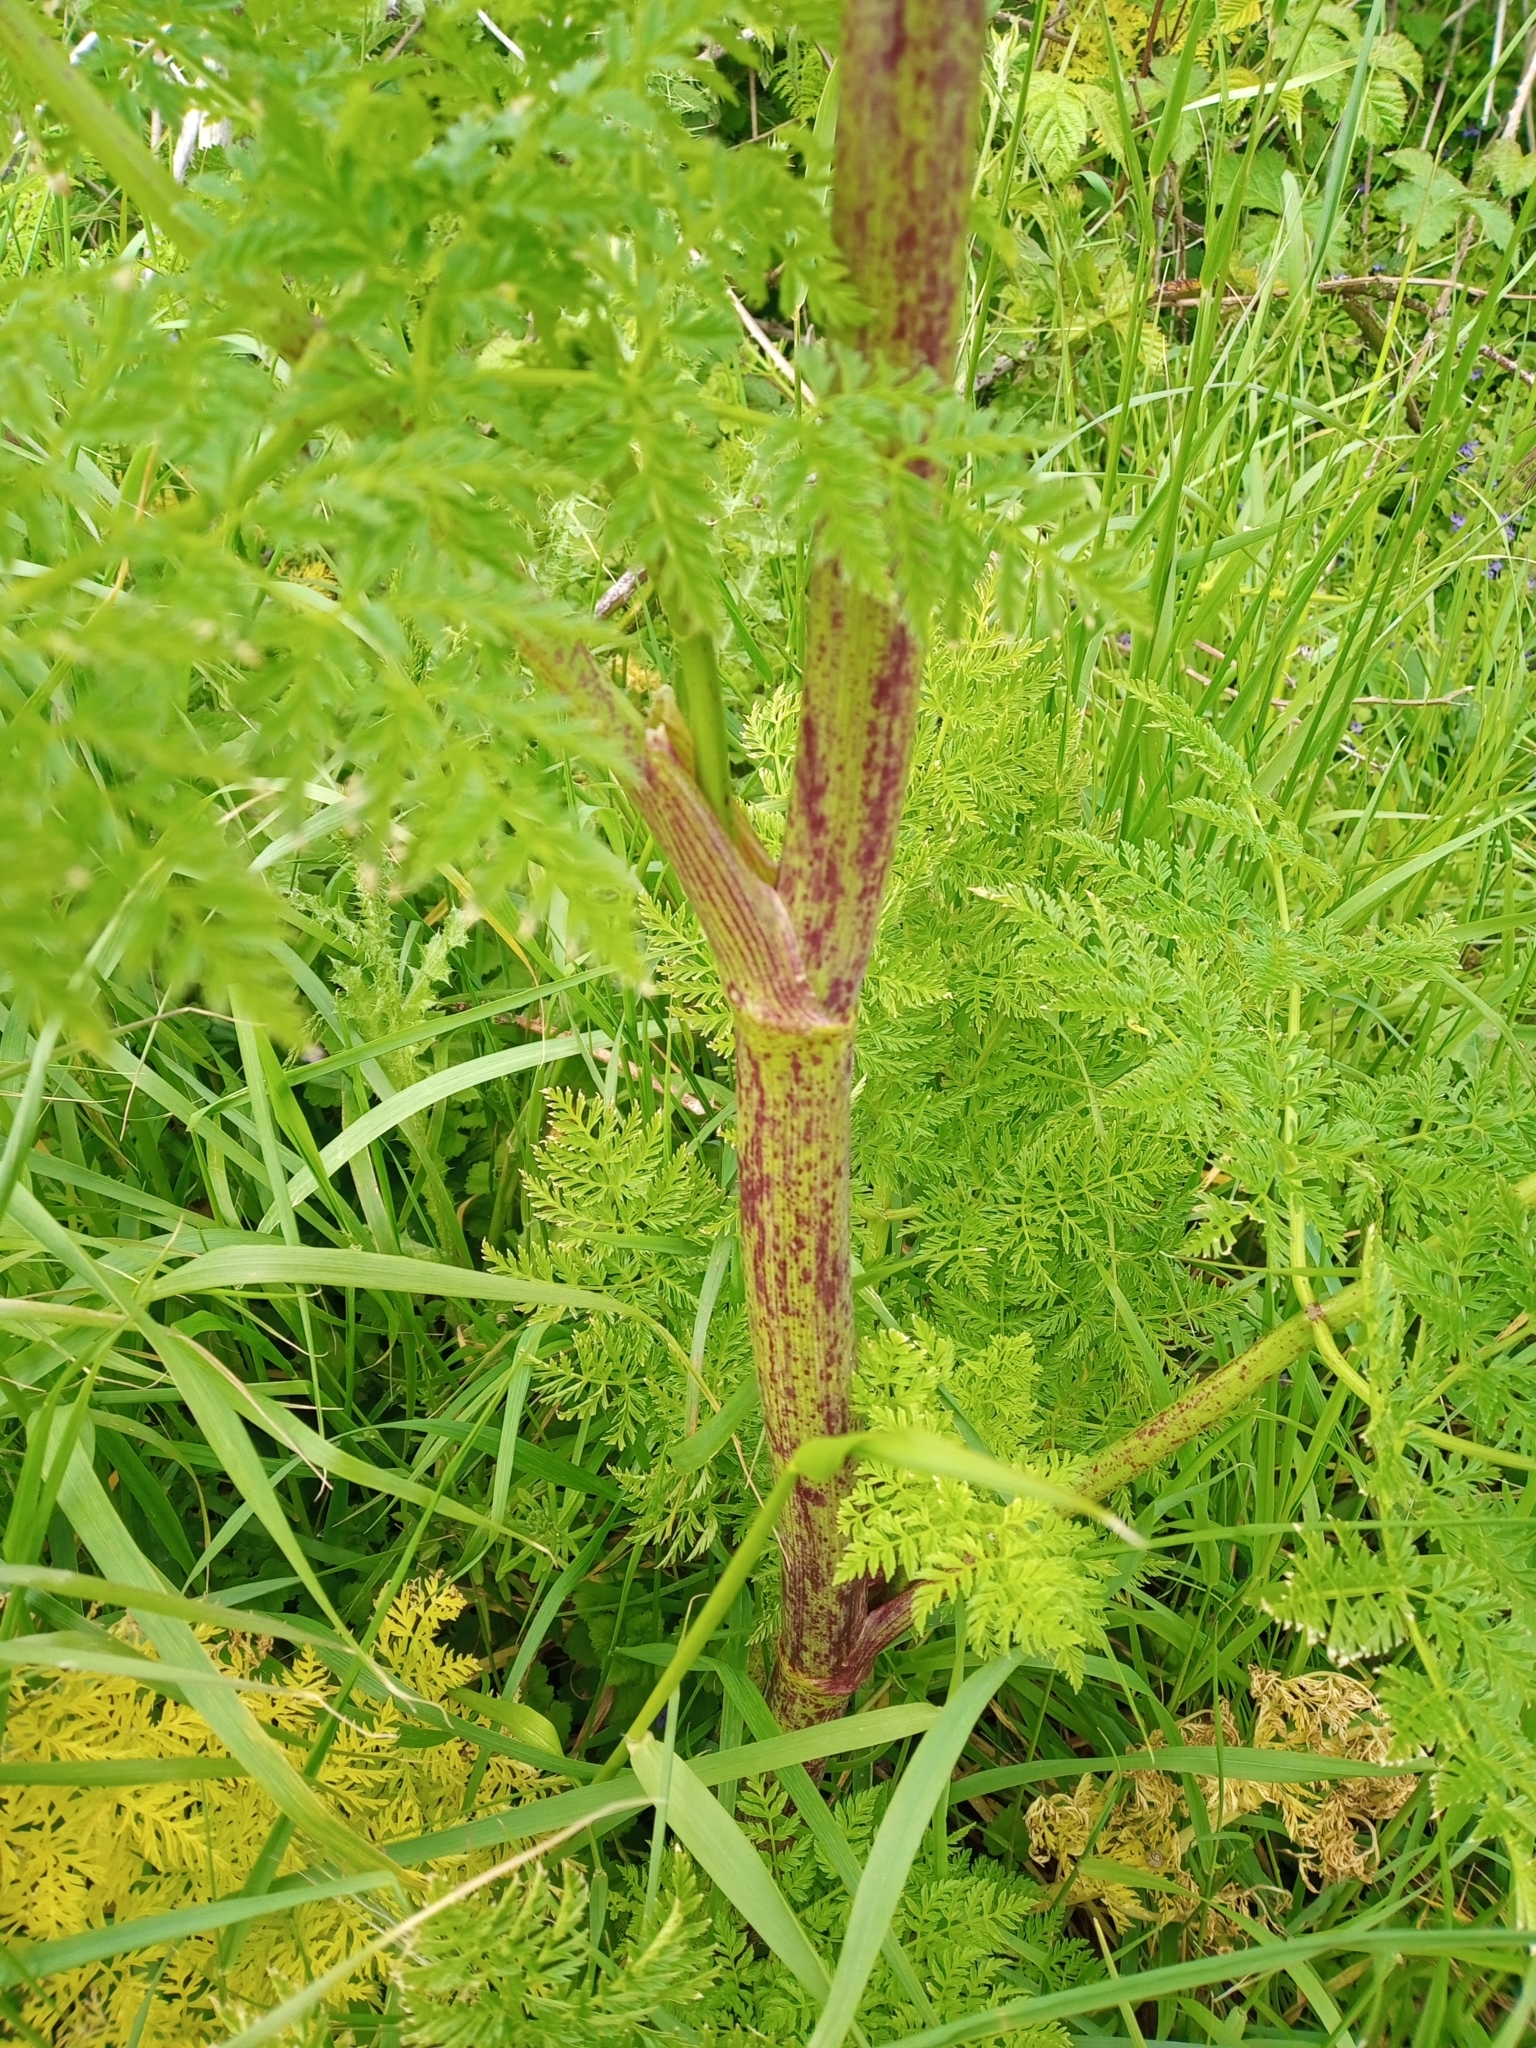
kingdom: Plantae
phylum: Tracheophyta
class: Magnoliopsida
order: Apiales
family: Apiaceae
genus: Conium
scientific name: Conium maculatum
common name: Hemlock
